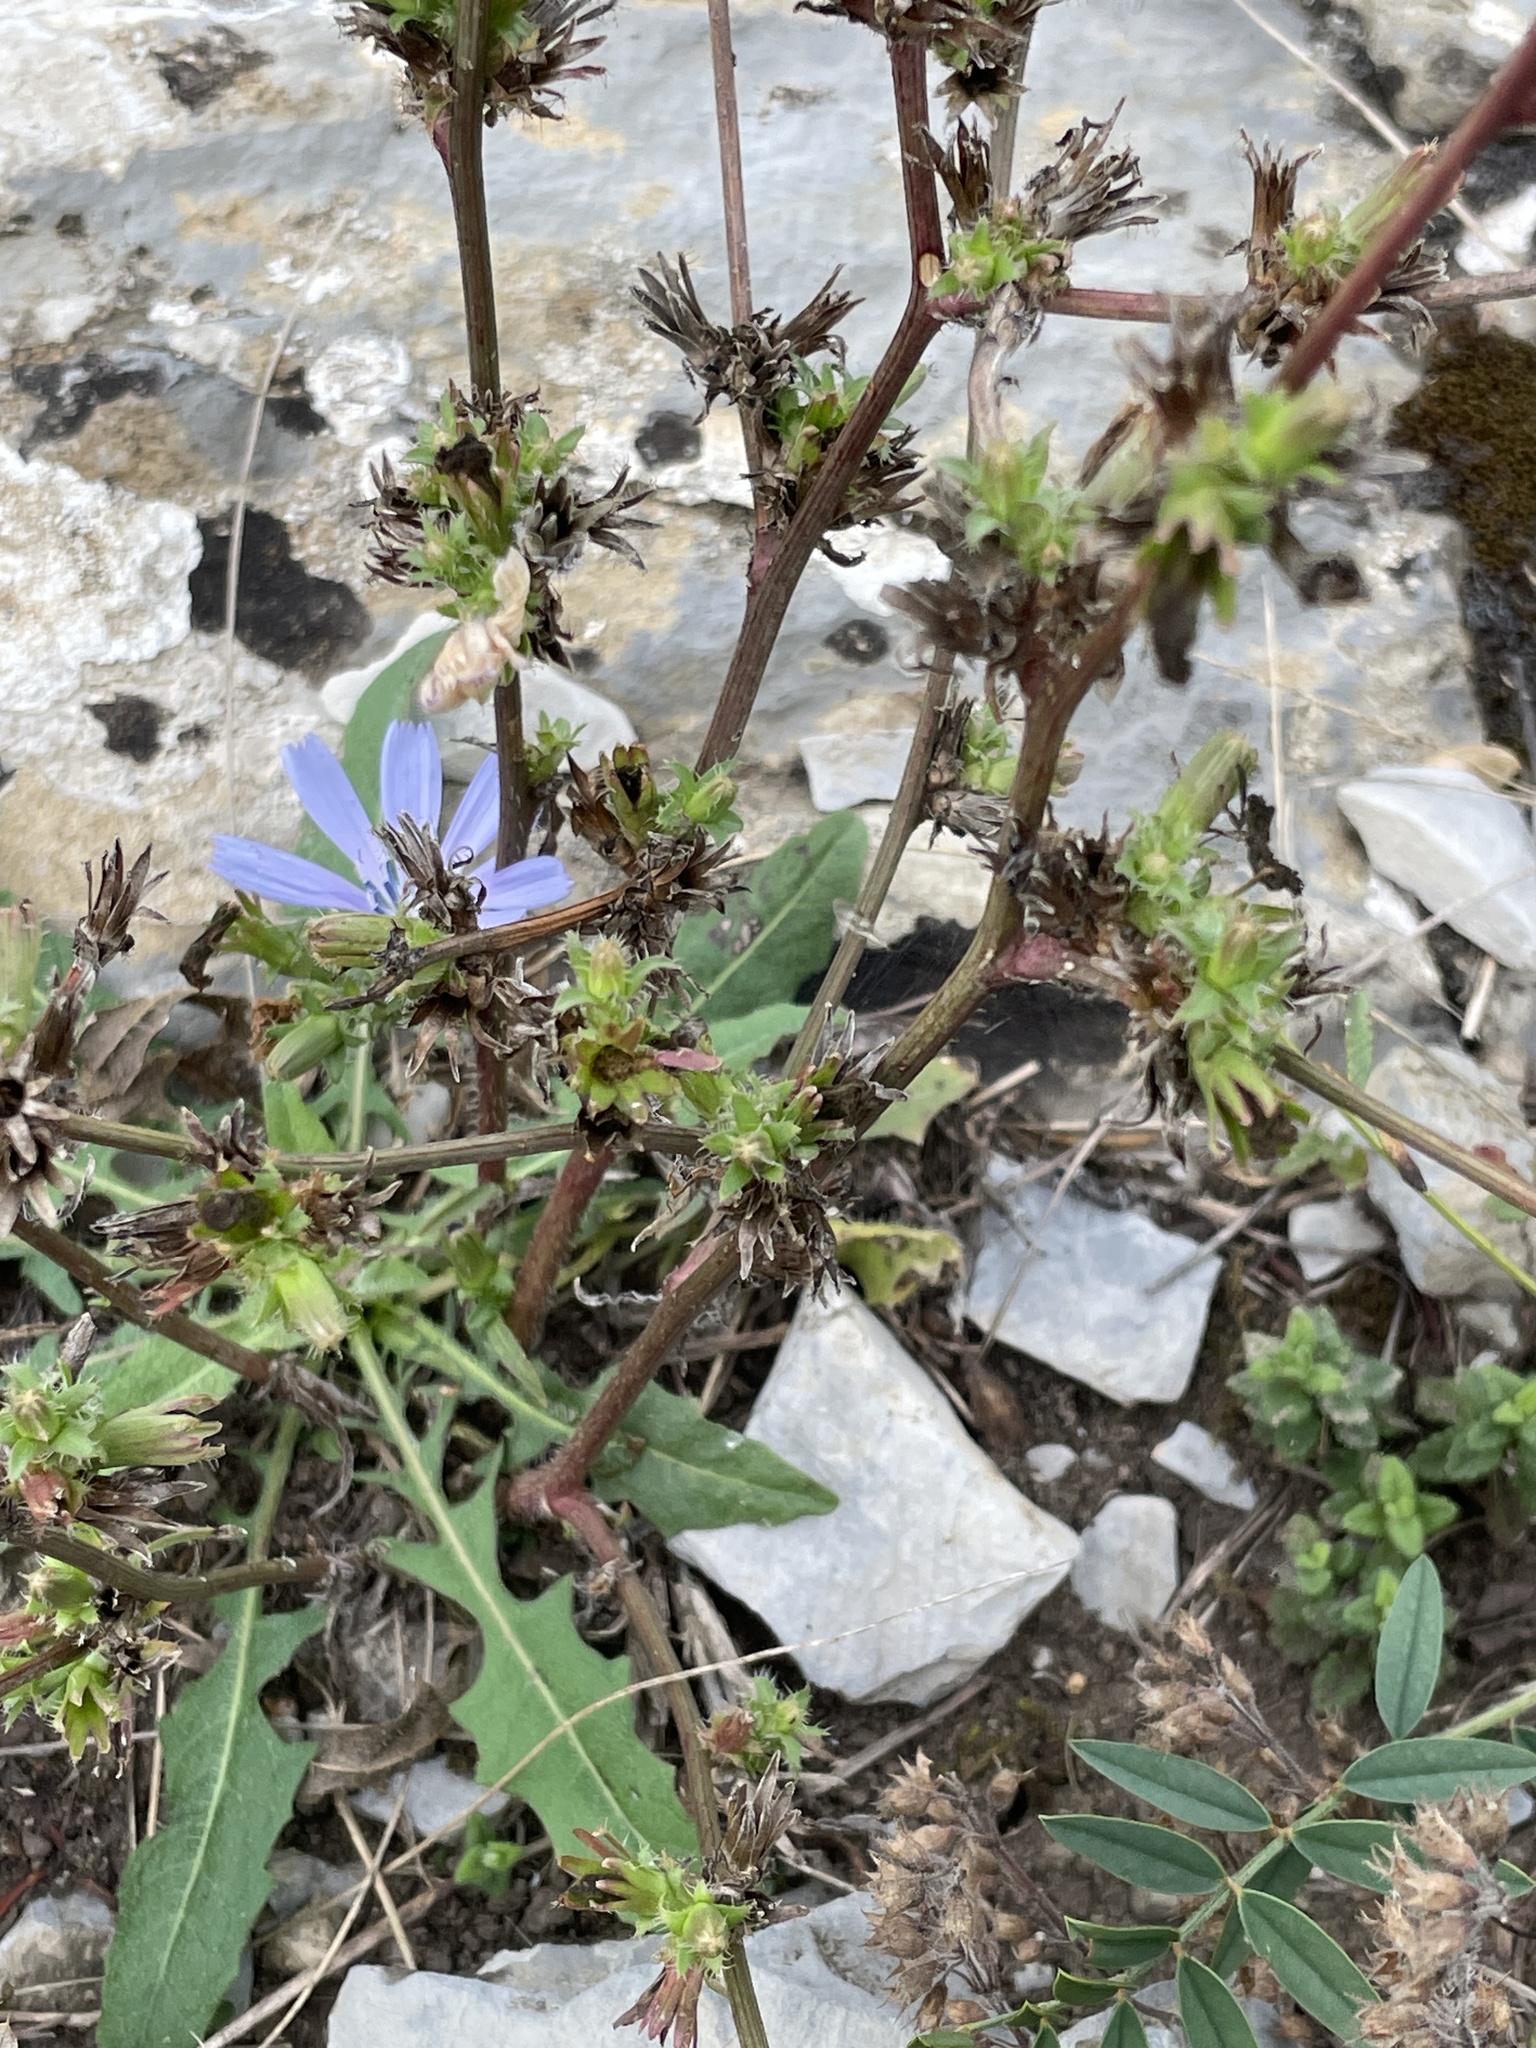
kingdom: Plantae
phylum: Tracheophyta
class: Magnoliopsida
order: Asterales
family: Asteraceae
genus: Cichorium
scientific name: Cichorium intybus
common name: Chicory
